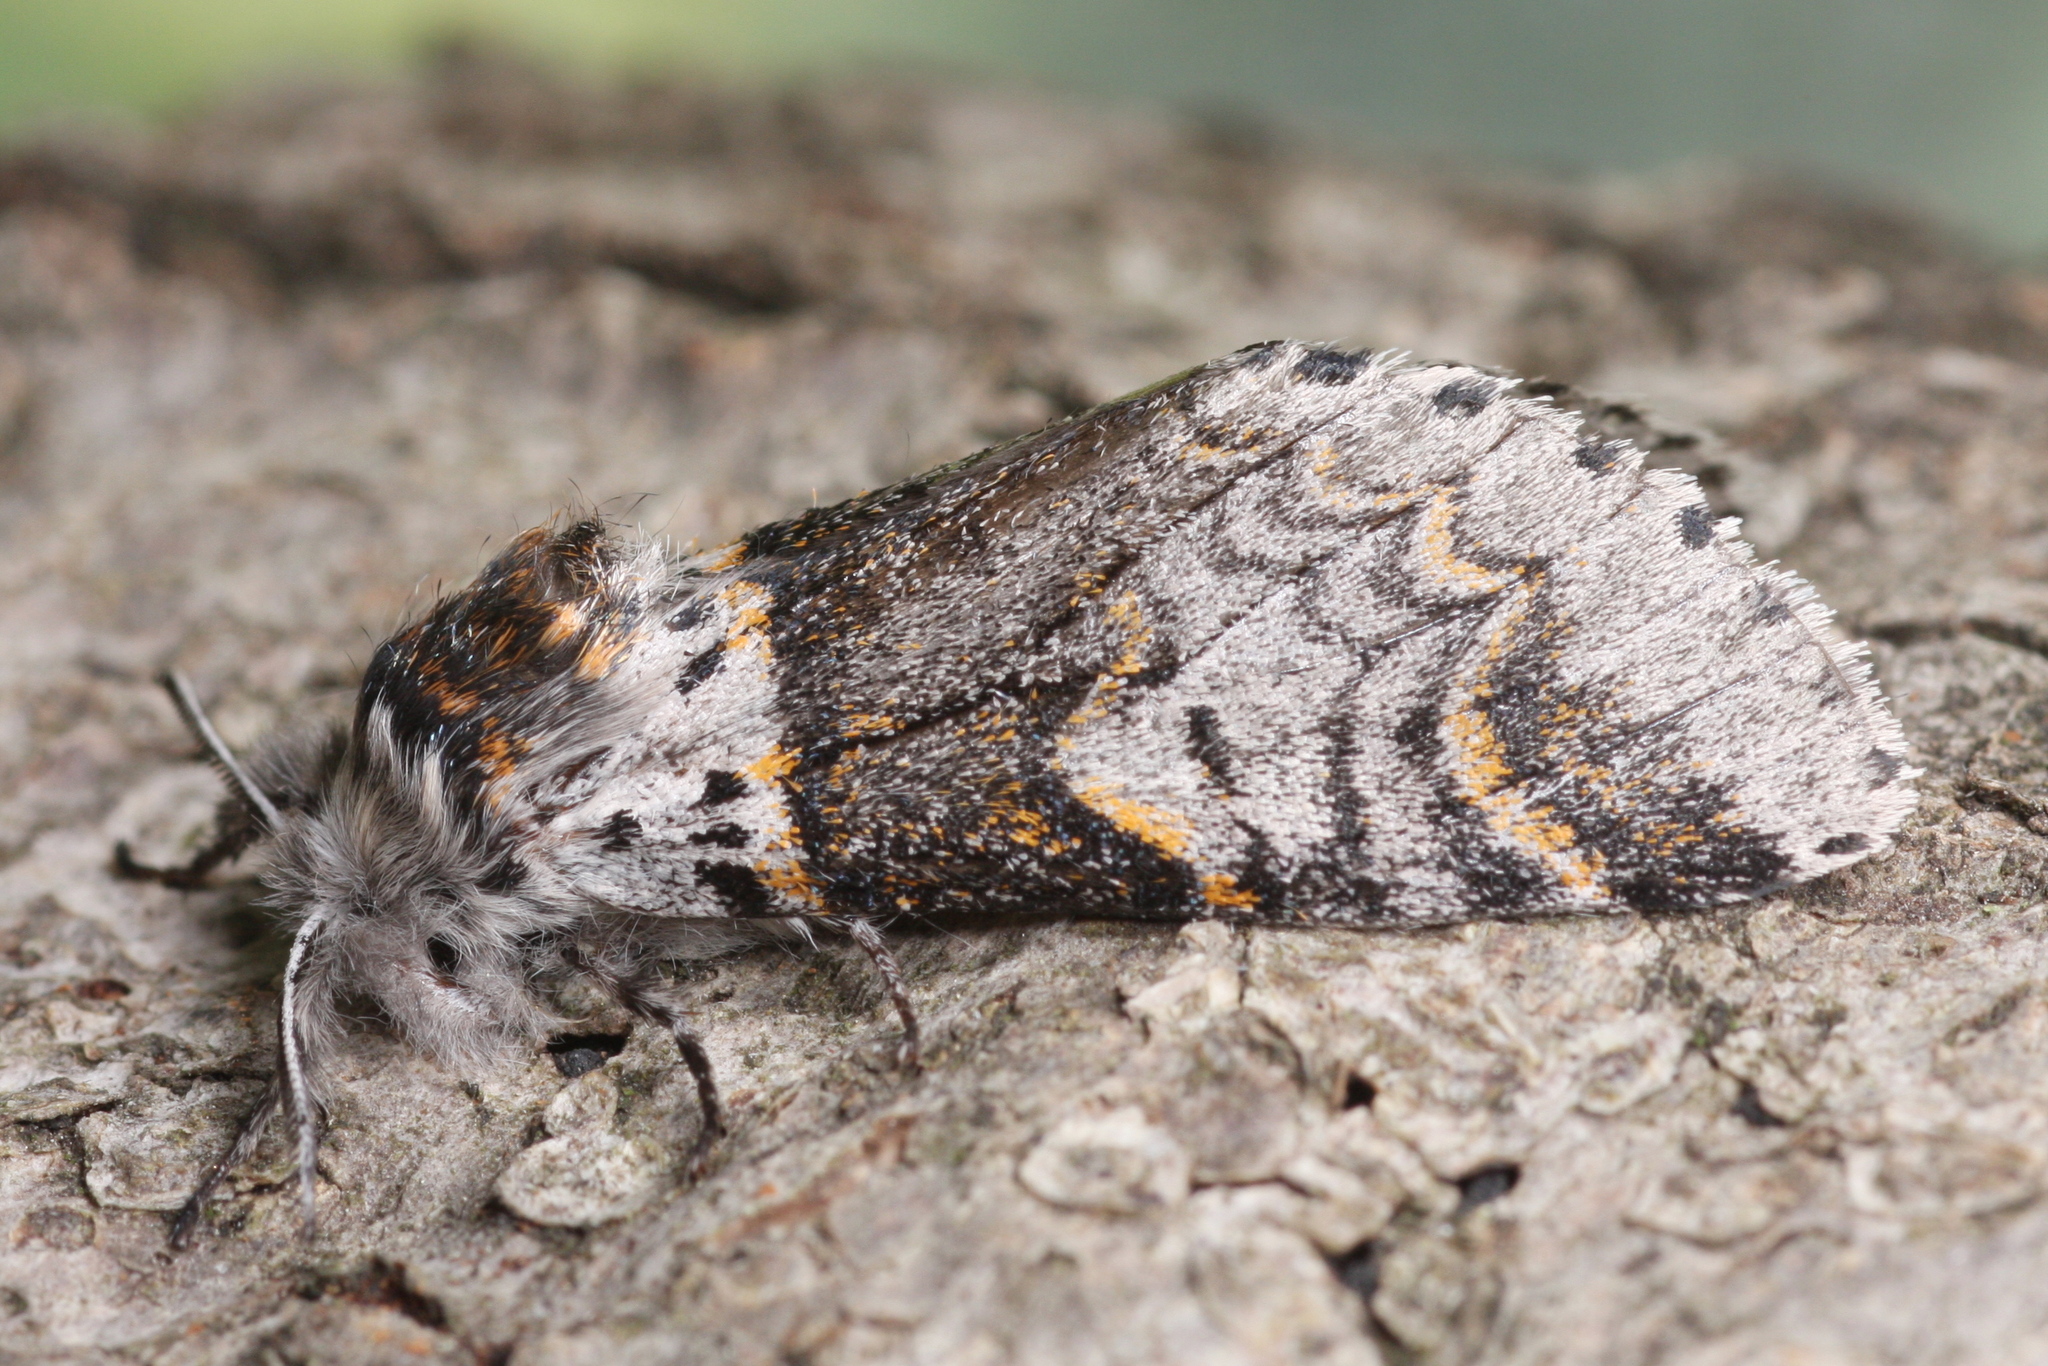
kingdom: Animalia
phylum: Arthropoda
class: Insecta
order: Lepidoptera
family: Notodontidae
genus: Furcula
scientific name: Furcula furcula
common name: Sallow kitten
